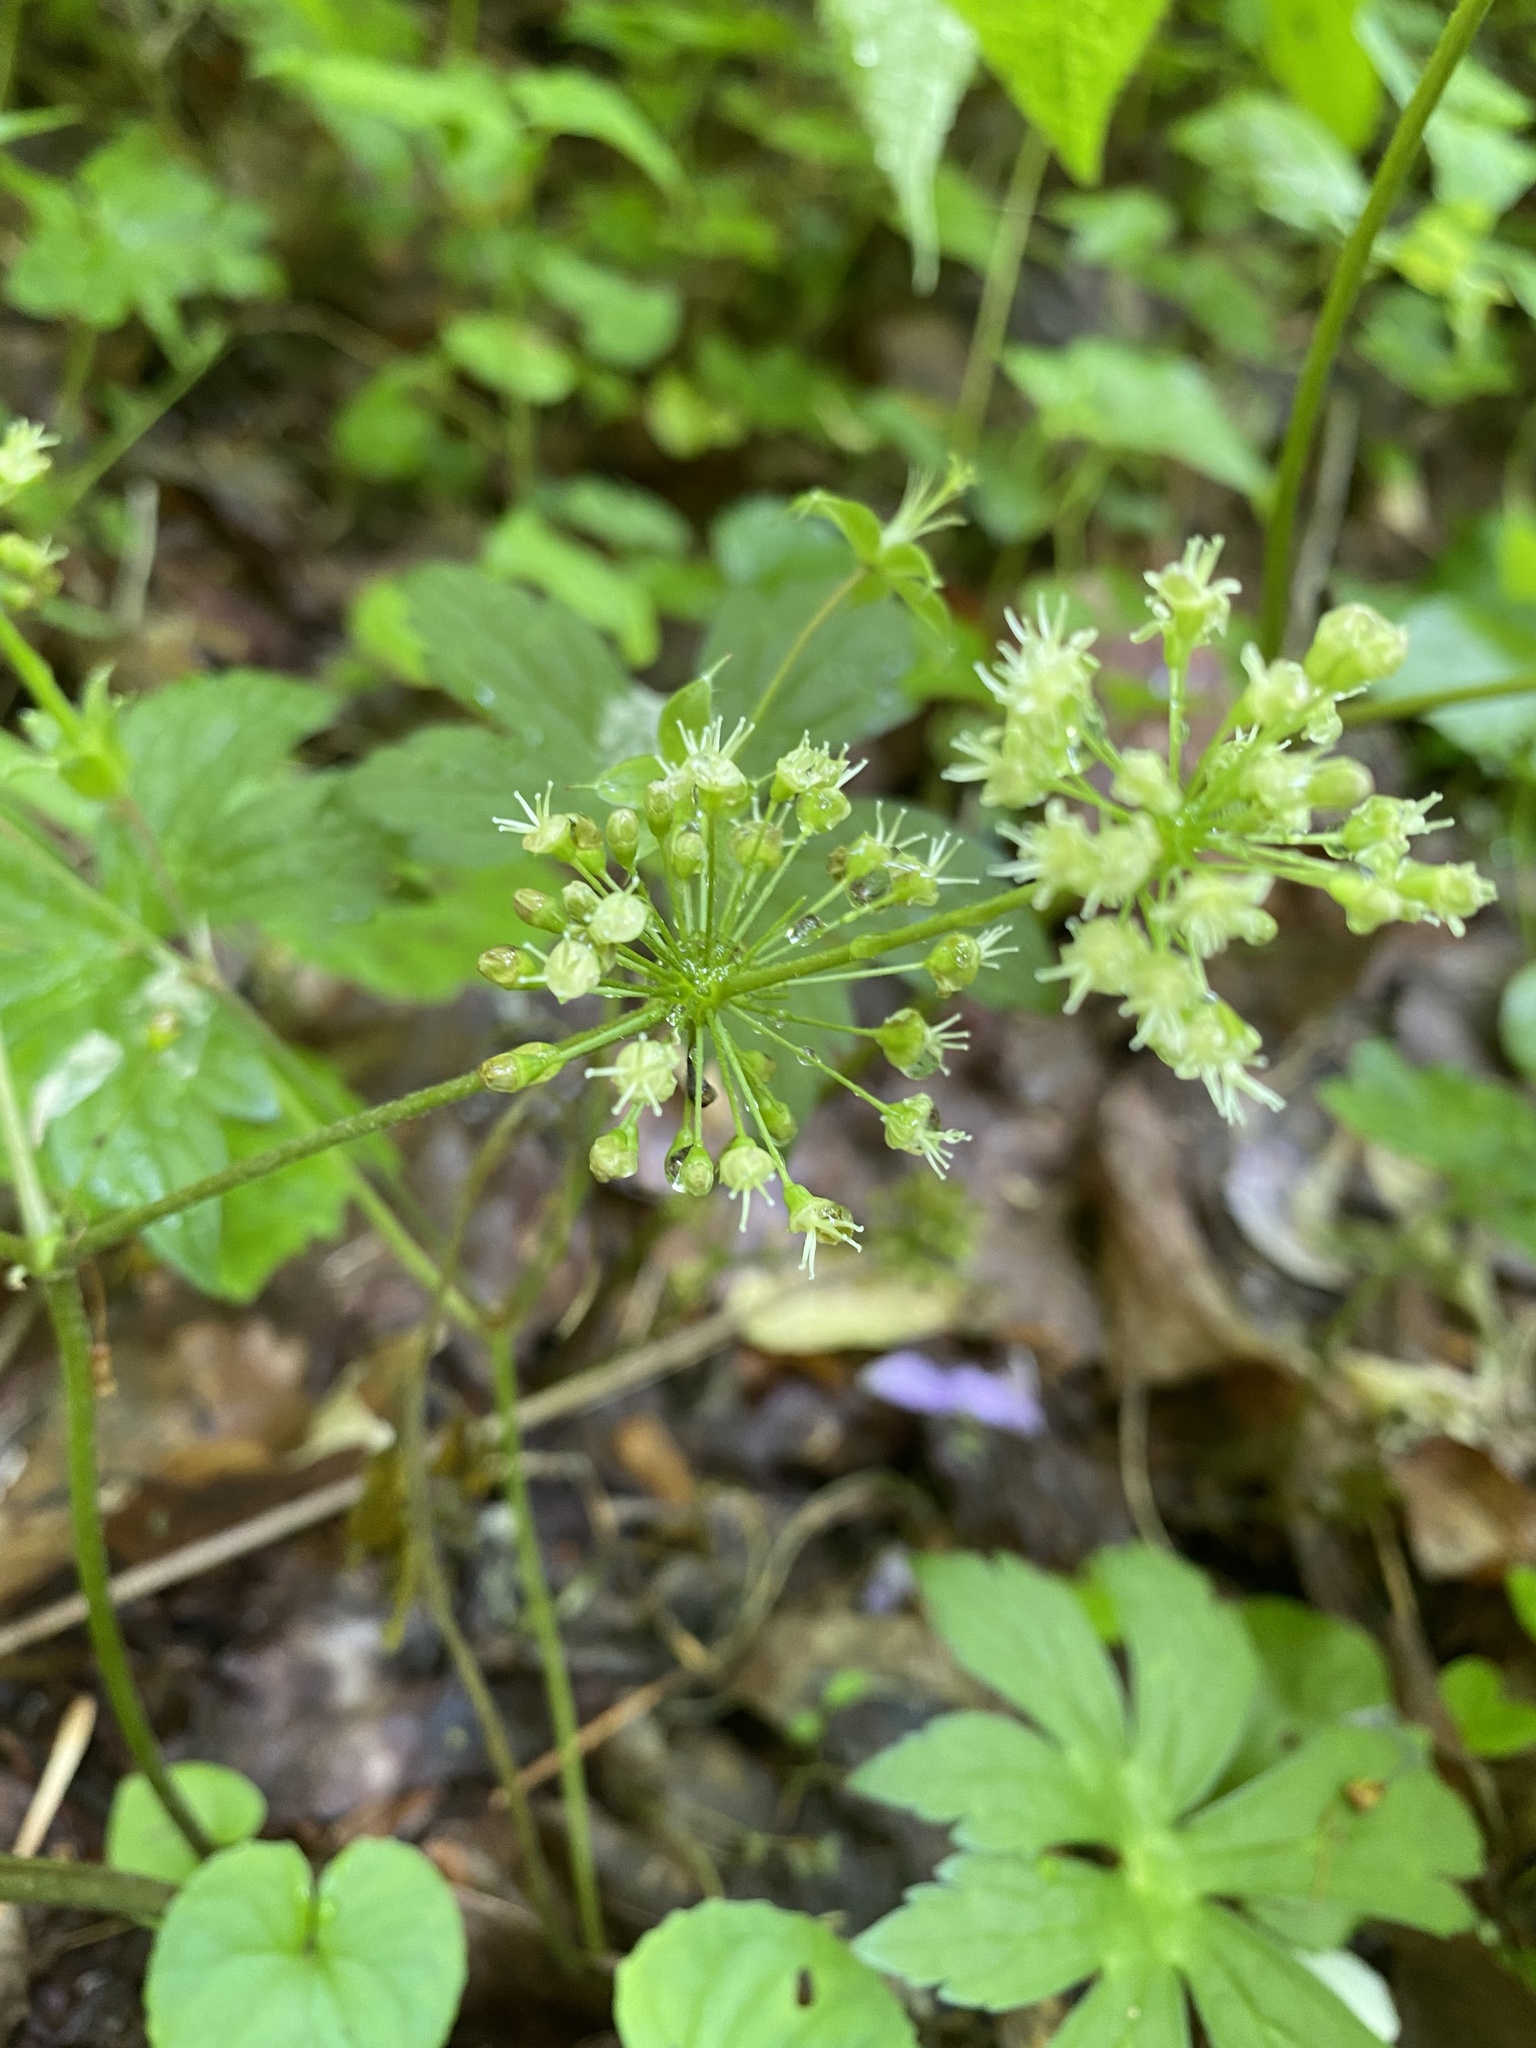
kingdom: Plantae
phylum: Tracheophyta
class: Magnoliopsida
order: Apiales
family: Araliaceae
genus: Aralia
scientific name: Aralia nudicaulis
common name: Wild sarsaparilla
